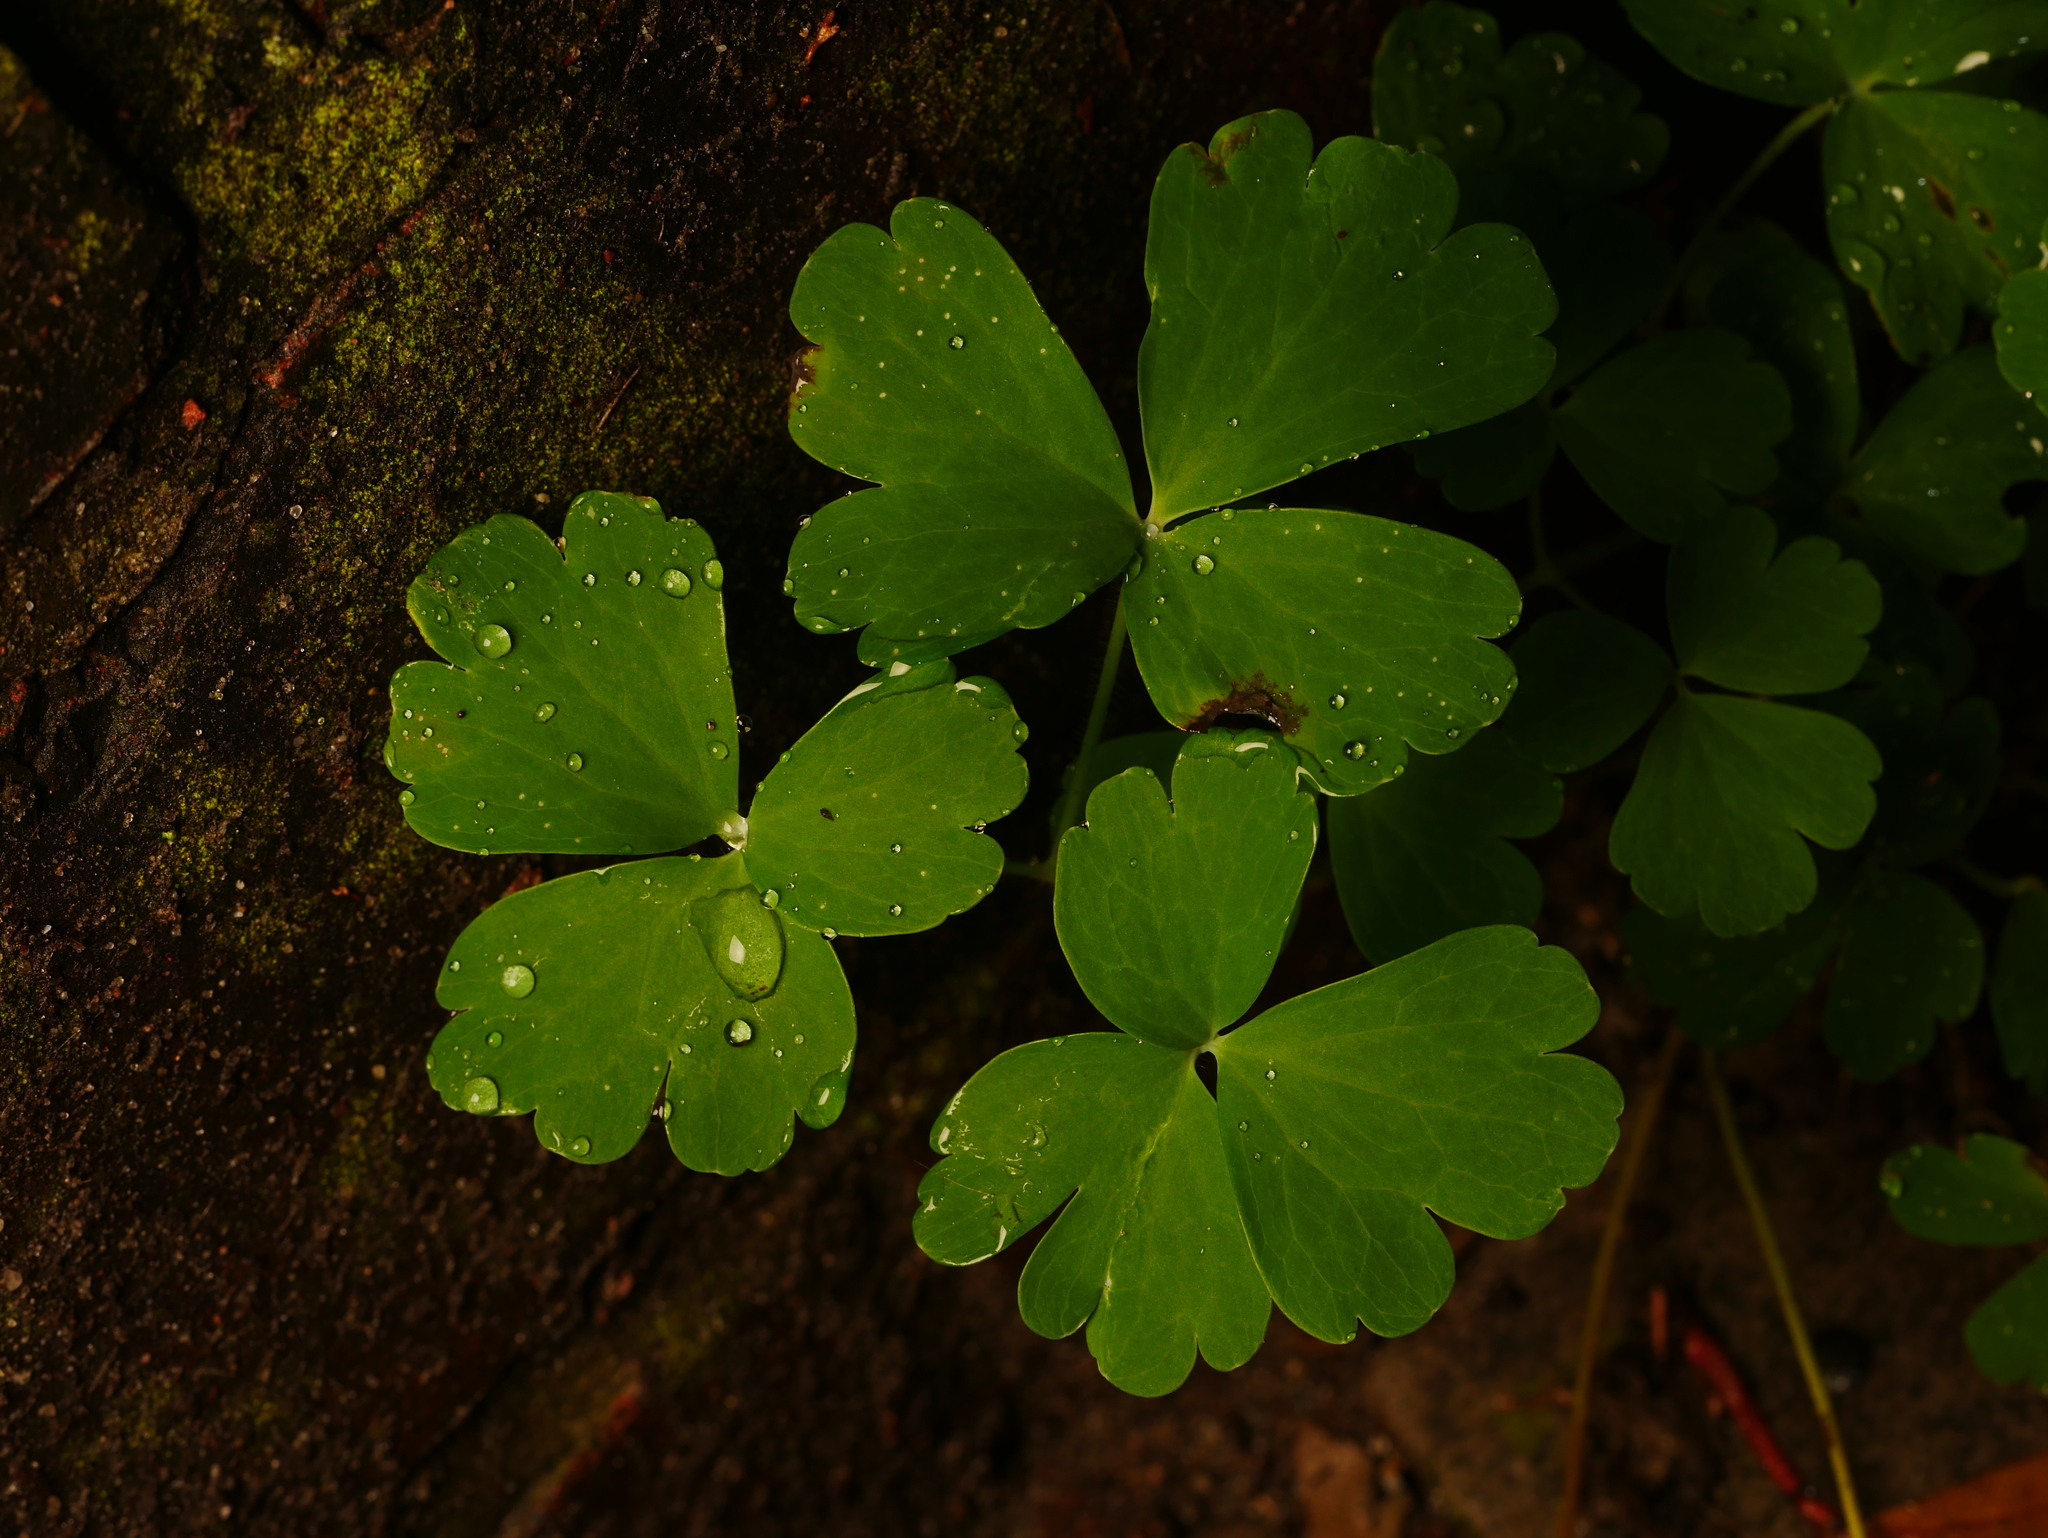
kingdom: Plantae
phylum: Tracheophyta
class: Magnoliopsida
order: Ranunculales
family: Ranunculaceae
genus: Aquilegia
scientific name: Aquilegia vulgaris
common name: Columbine
